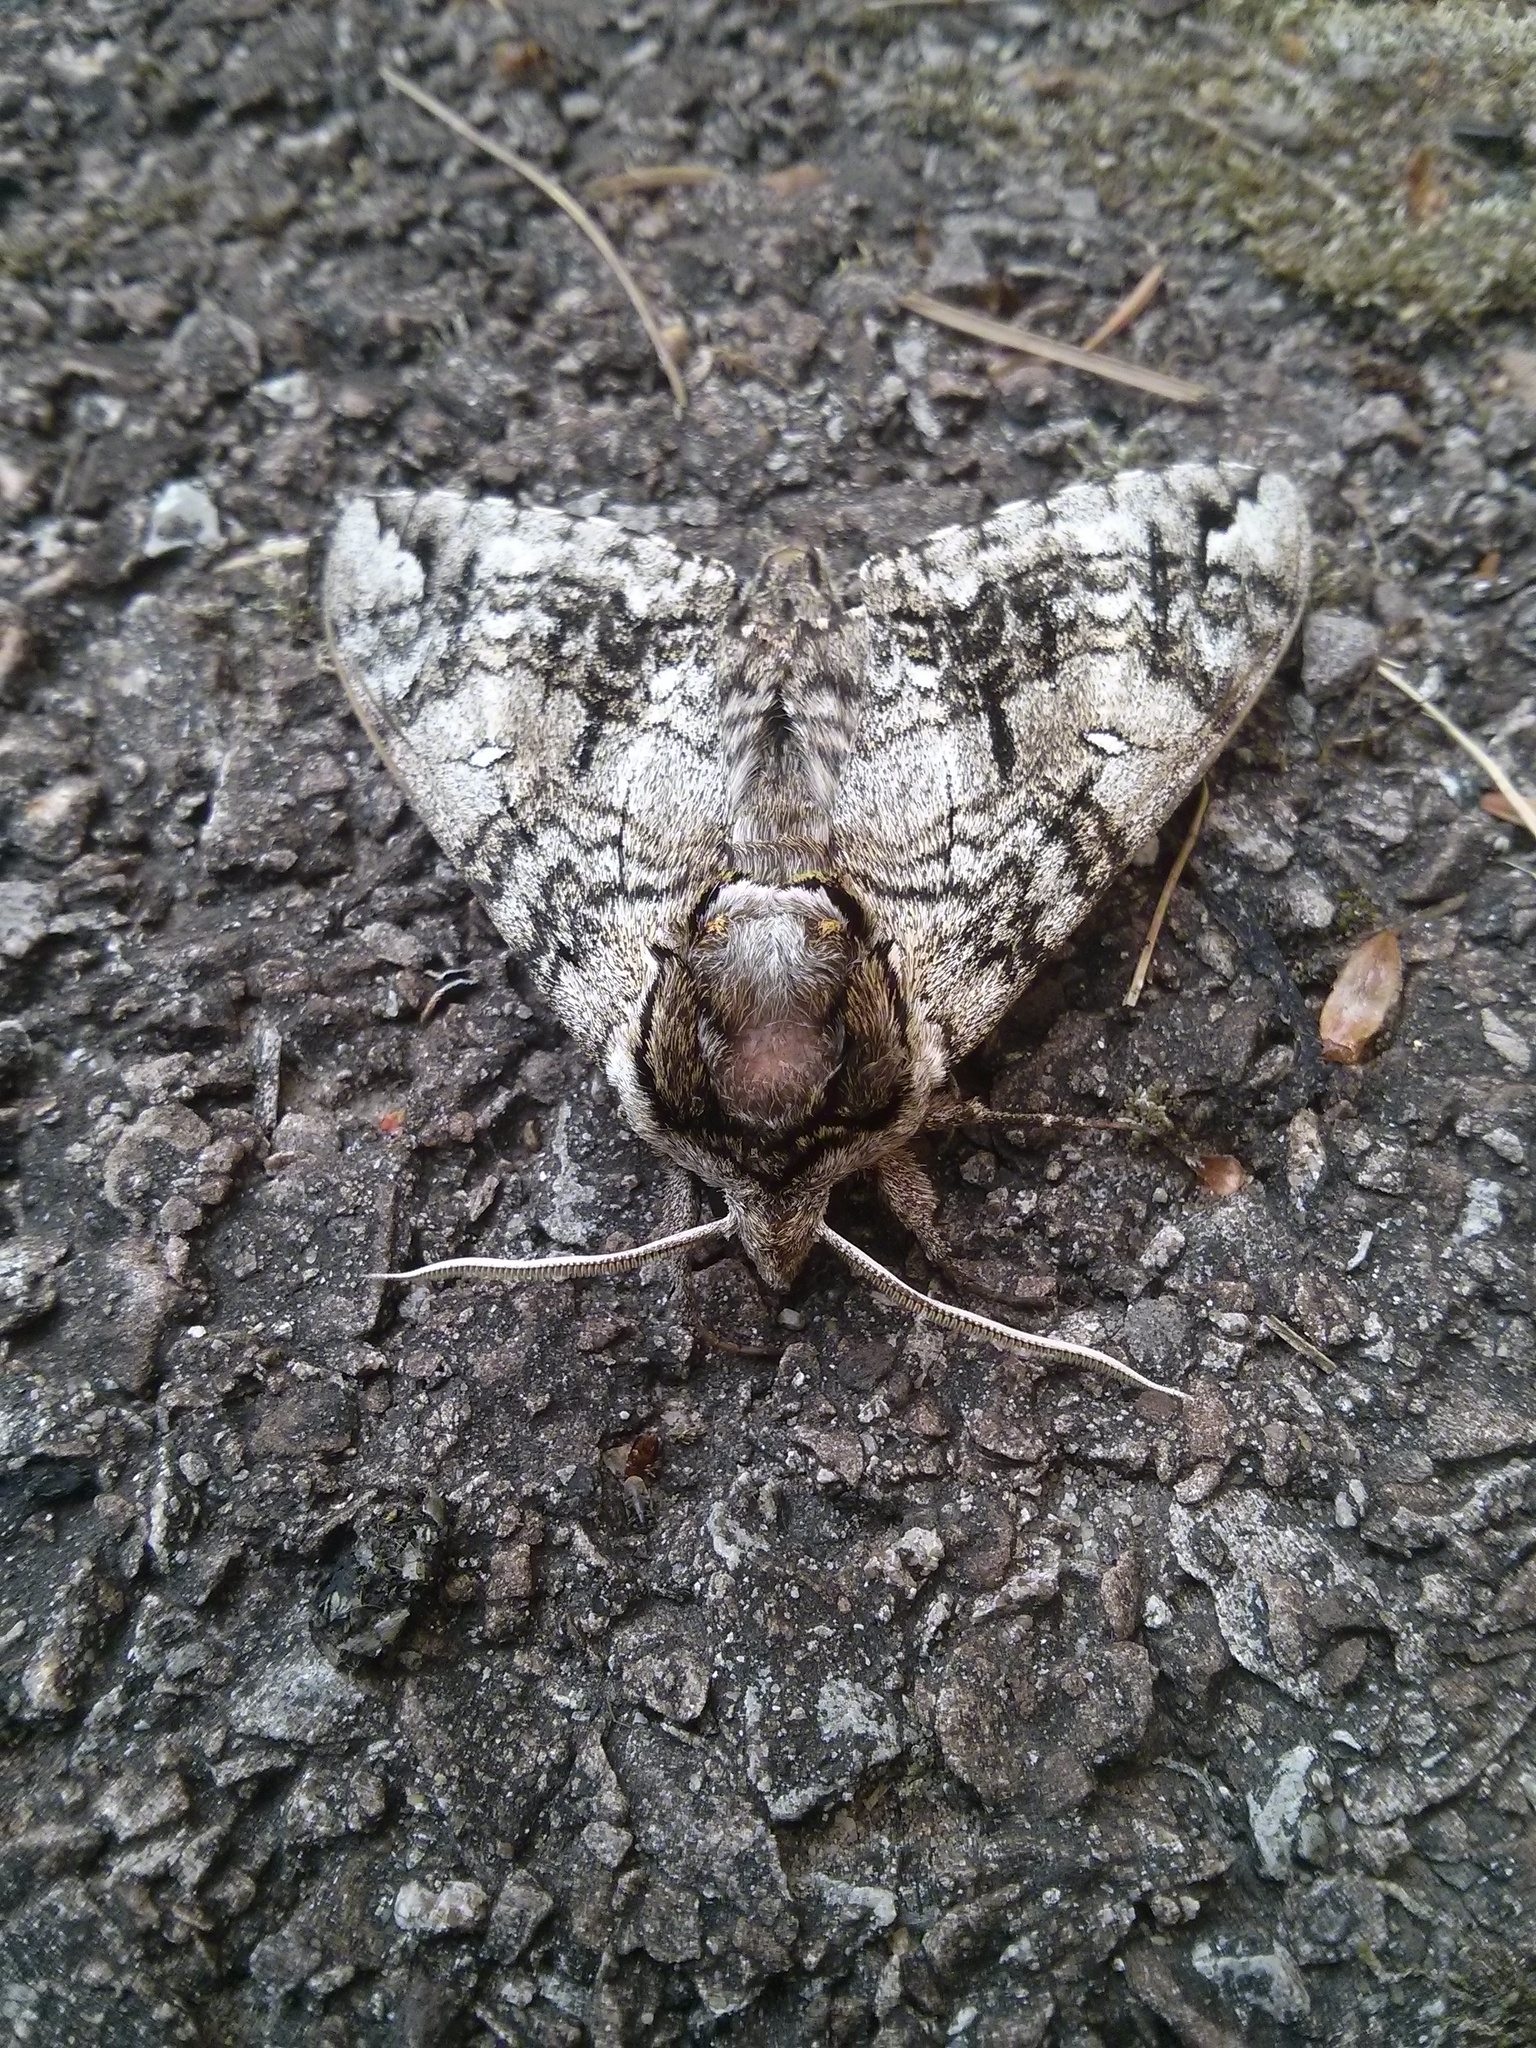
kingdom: Animalia
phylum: Arthropoda
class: Insecta
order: Lepidoptera
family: Sphingidae
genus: Ceratomia
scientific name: Ceratomia undulosa
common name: Waved sphinx
